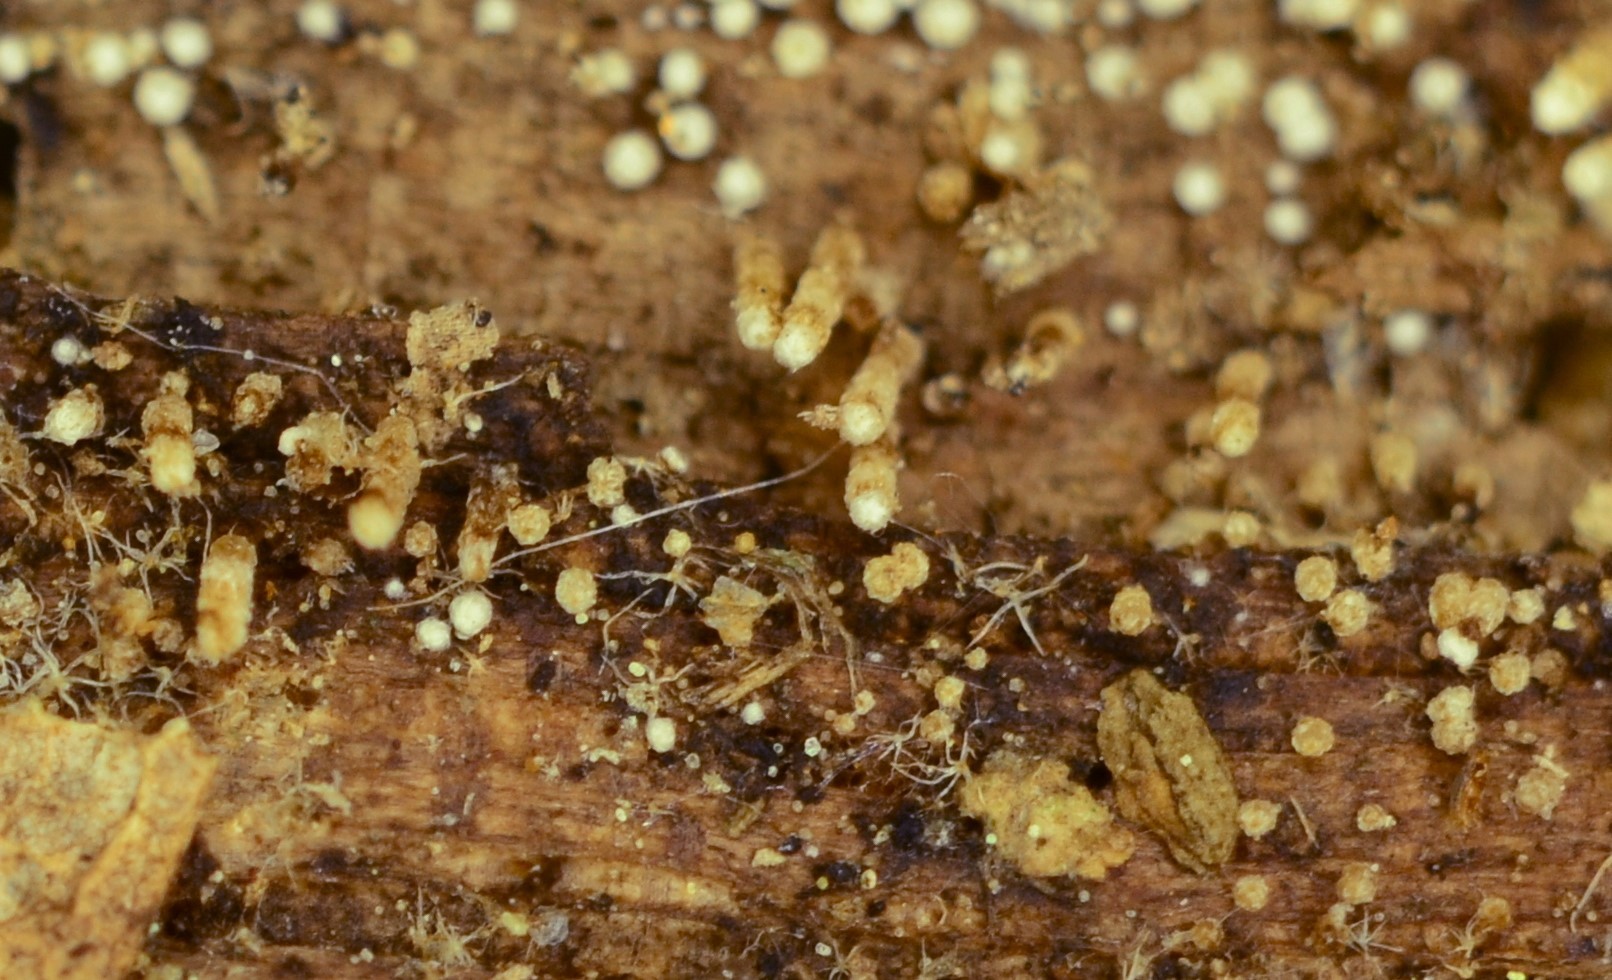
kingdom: Fungi
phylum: Basidiomycota
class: Agaricomycetes
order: Agaricales
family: Marasmiaceae
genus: Rectipilus
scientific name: Rectipilus davidii
